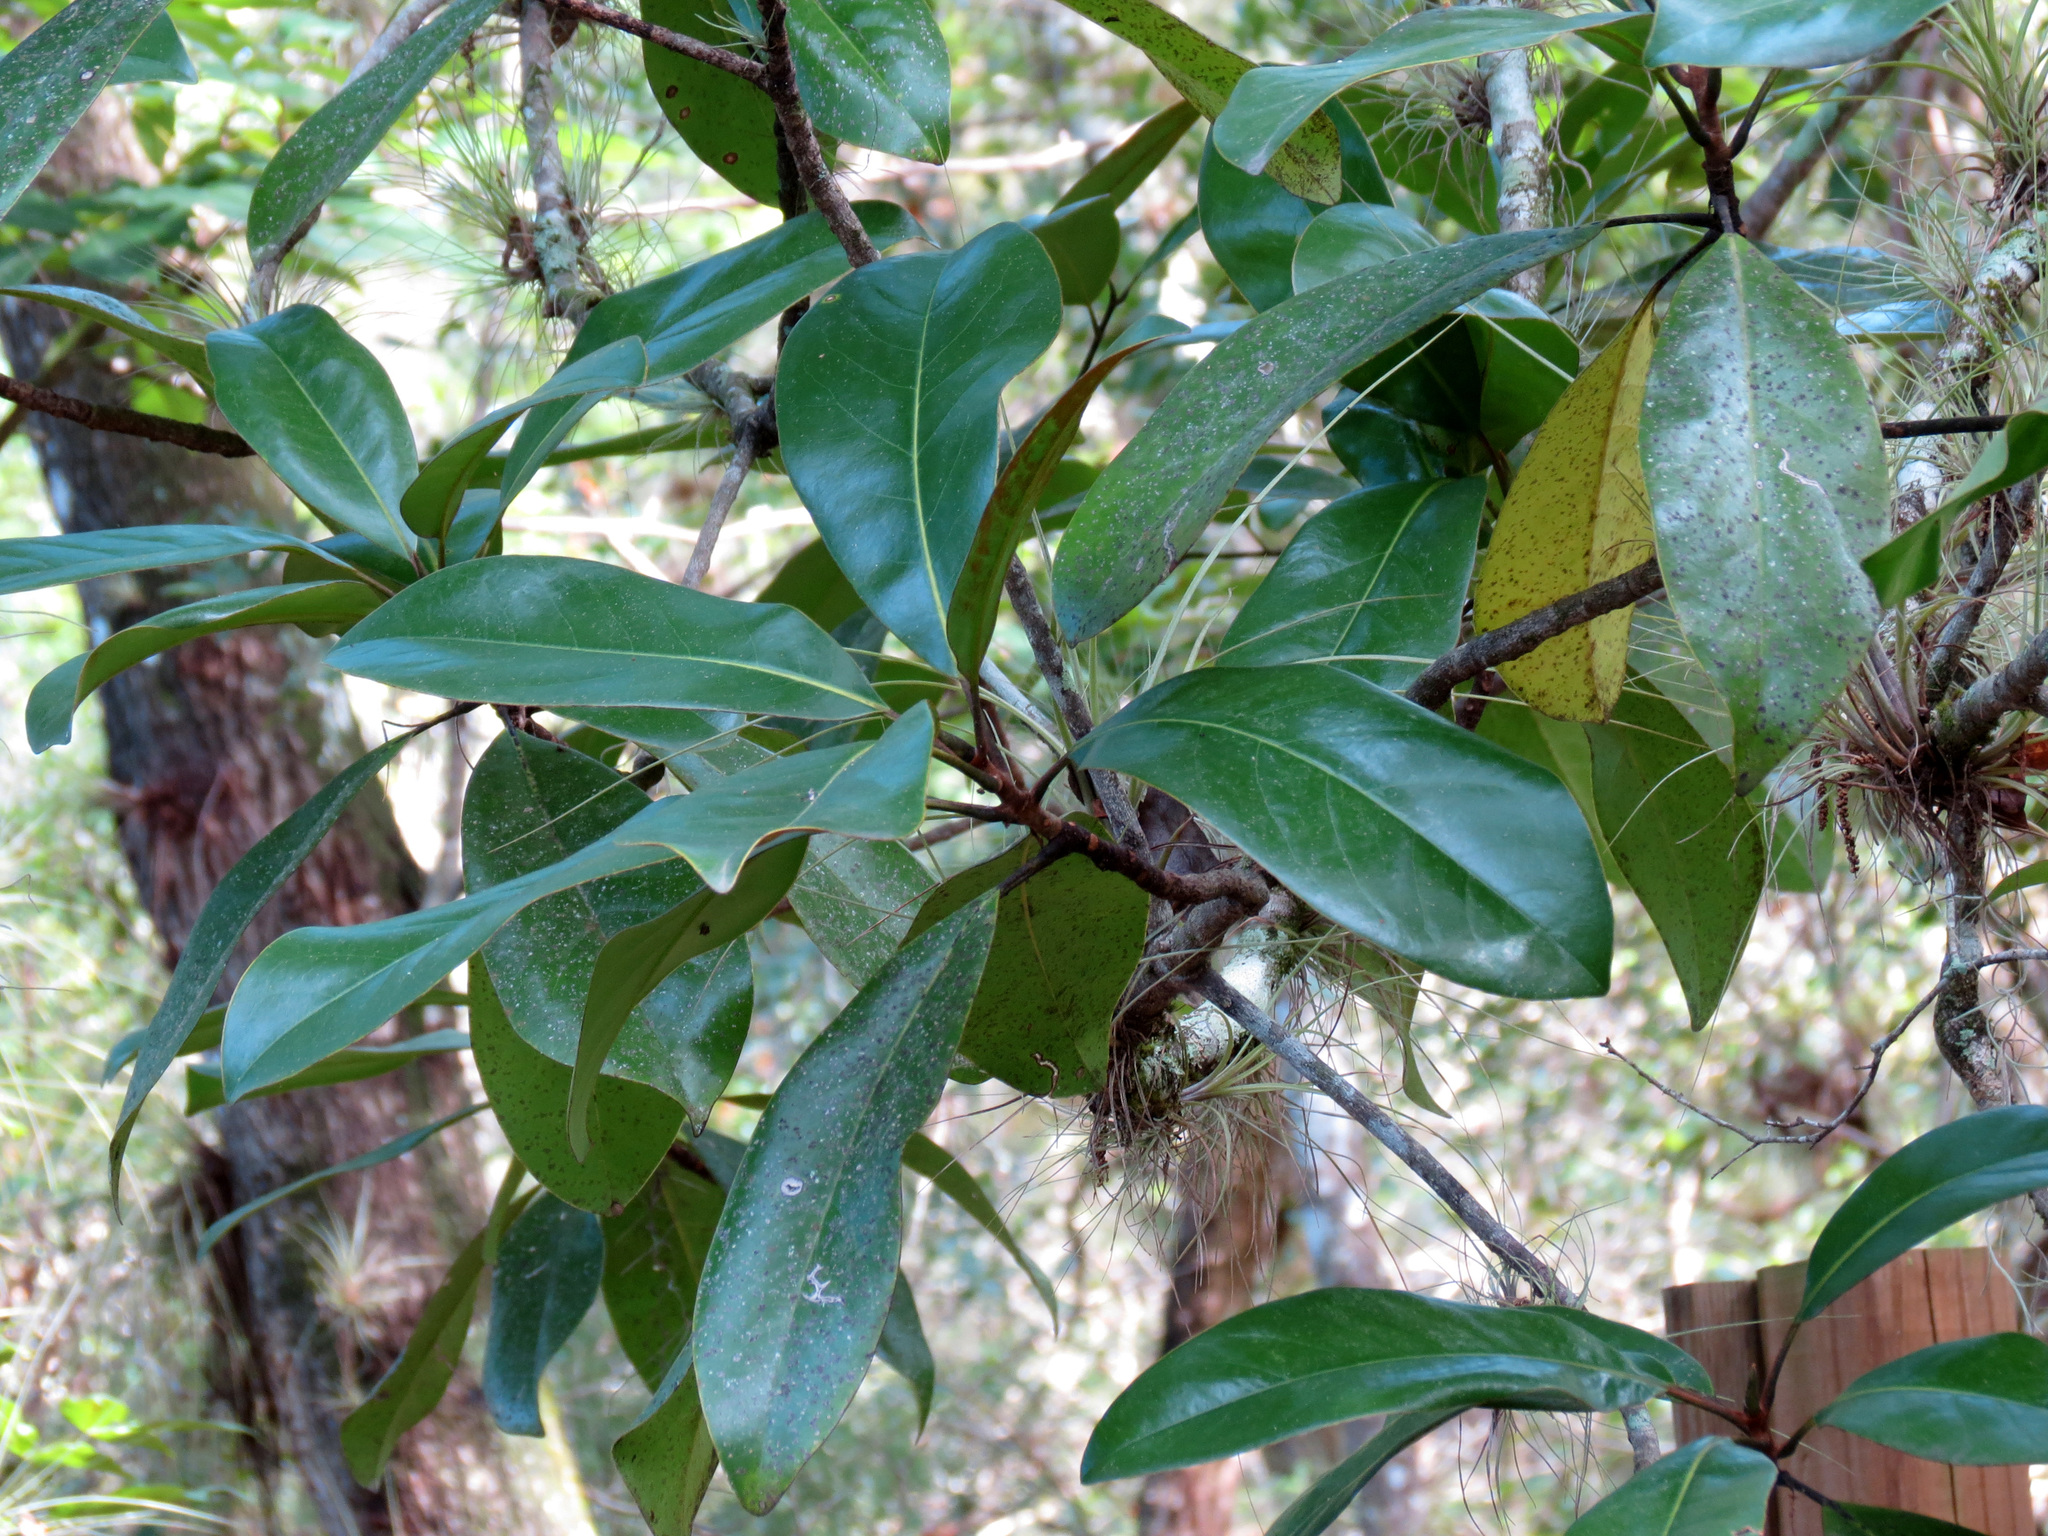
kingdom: Plantae
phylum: Tracheophyta
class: Magnoliopsida
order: Magnoliales
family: Magnoliaceae
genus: Magnolia
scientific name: Magnolia grandiflora
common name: Southern magnolia
